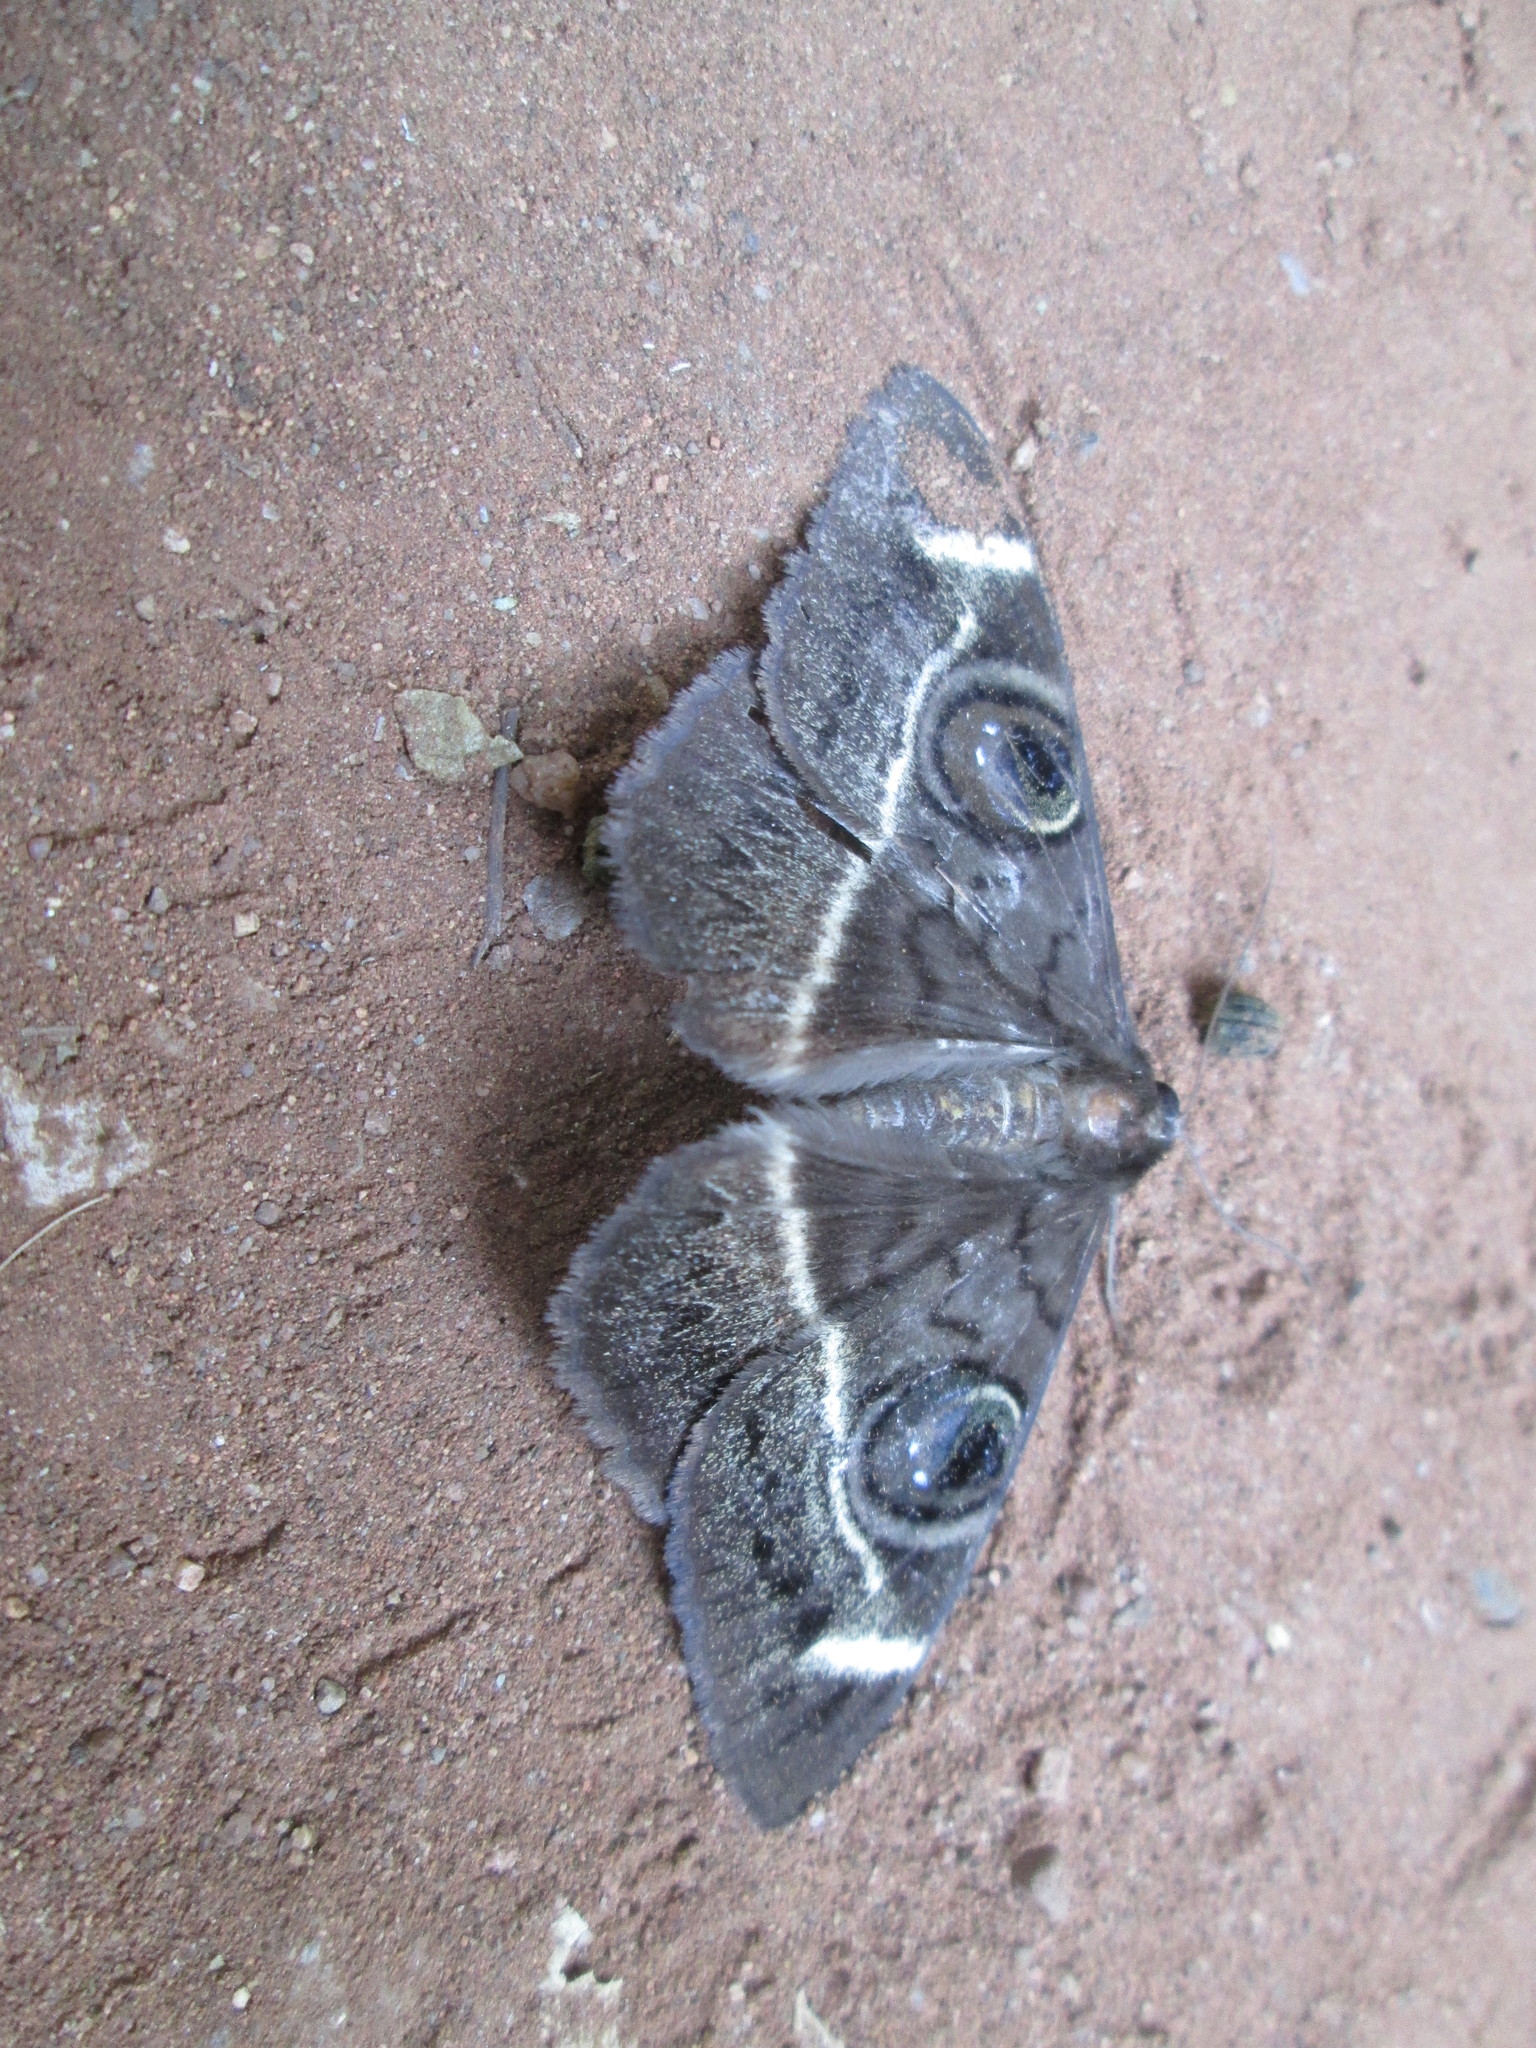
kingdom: Animalia
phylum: Arthropoda
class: Insecta
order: Lepidoptera
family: Erebidae
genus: Cyligramma
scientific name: Cyligramma latona
